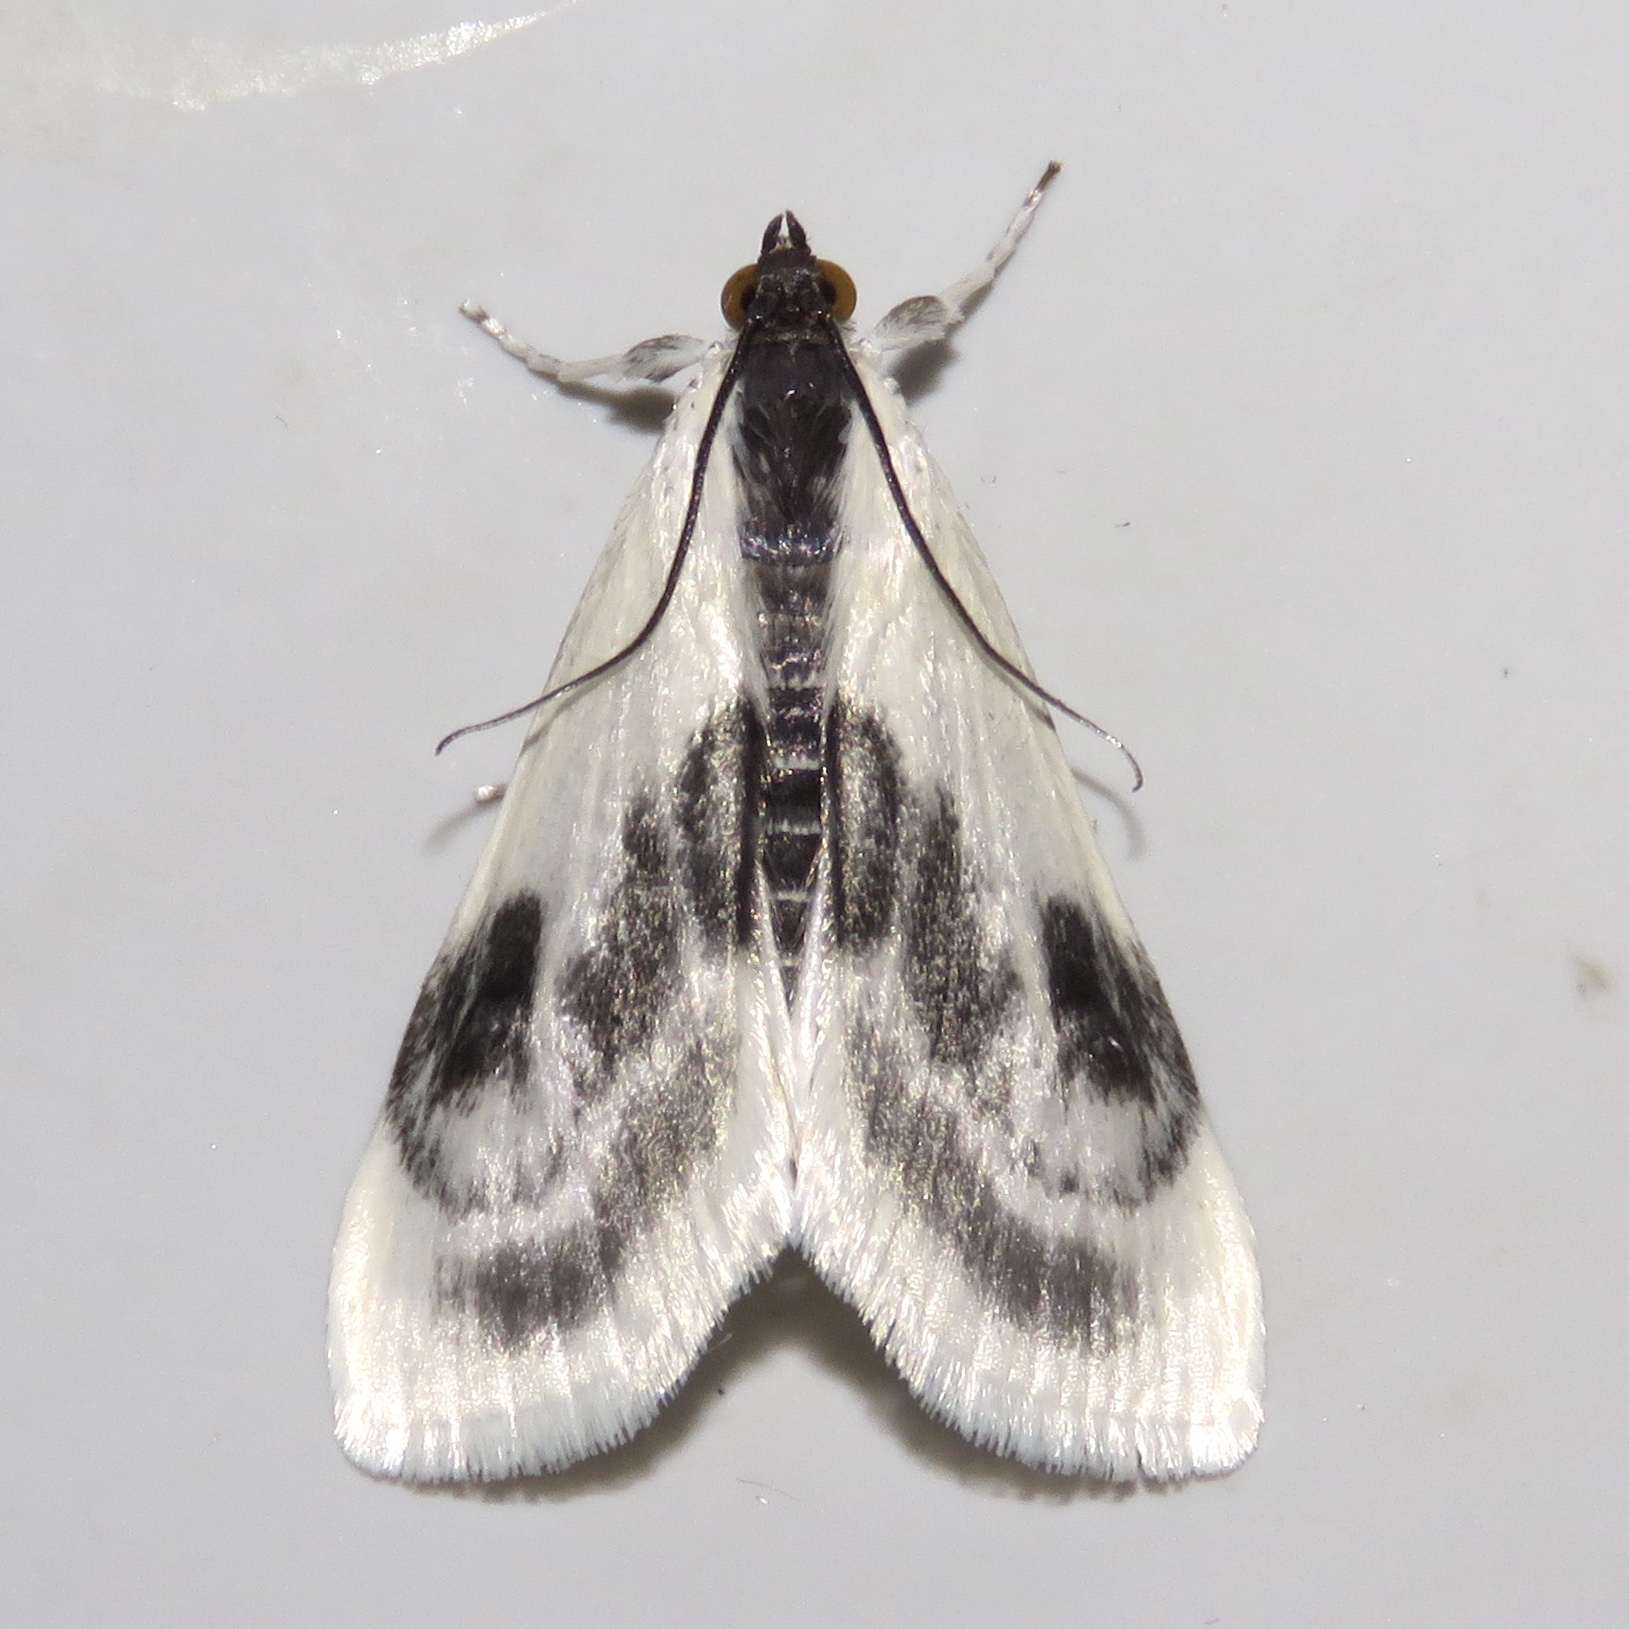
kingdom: Animalia
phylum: Arthropoda
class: Insecta
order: Lepidoptera
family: Crambidae
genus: Cliniodes
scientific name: Cliniodes
